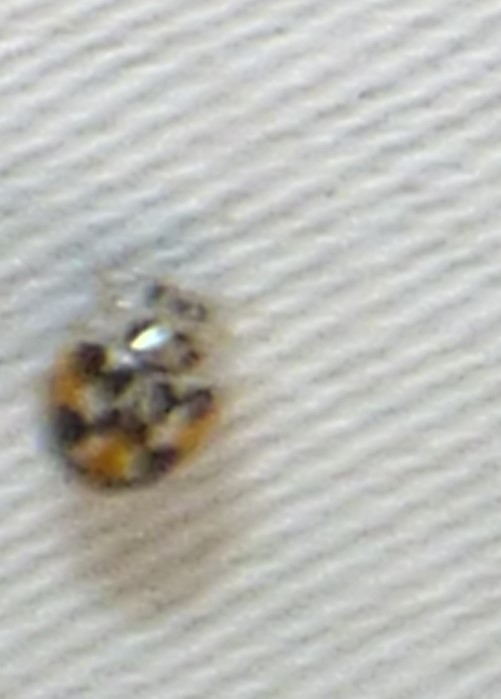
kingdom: Animalia
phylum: Arthropoda
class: Insecta
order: Coleoptera
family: Coccinellidae
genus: Psyllobora
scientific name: Psyllobora vigintimaculata
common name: Ladybird beetle
